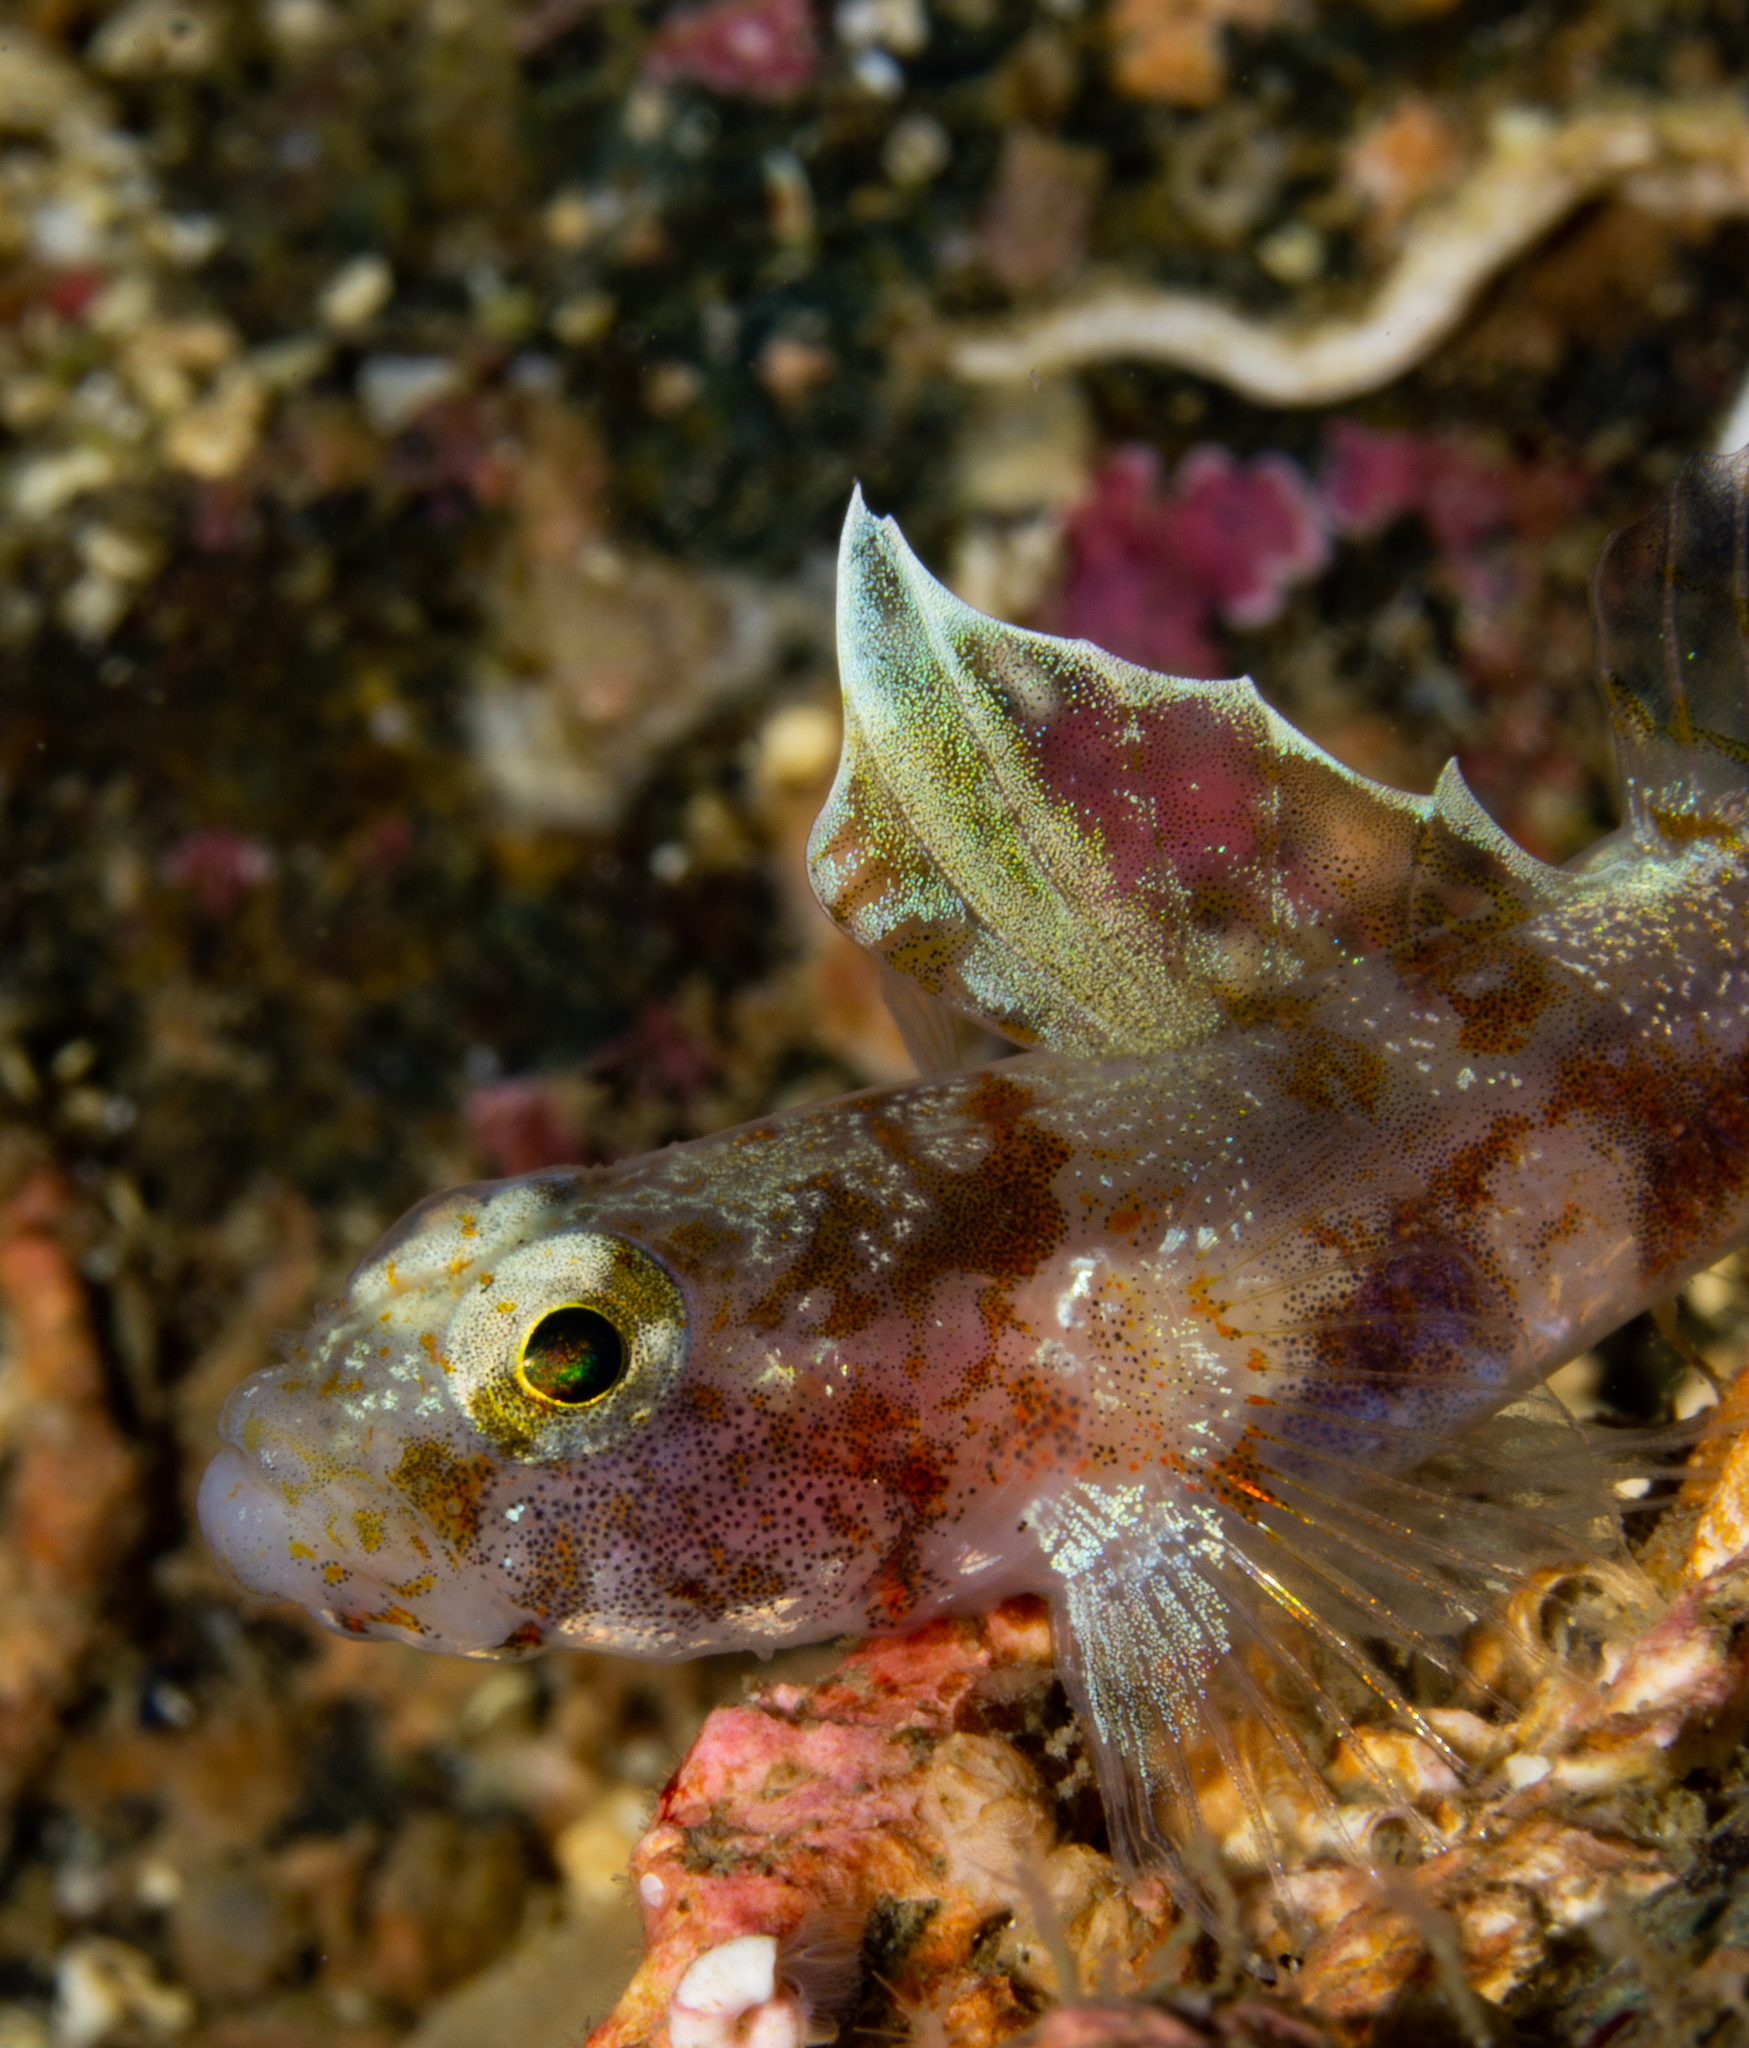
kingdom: Animalia
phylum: Chordata
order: Perciformes
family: Gobiidae
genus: Lebetus
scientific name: Lebetus scorpioides
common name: Diminutive goby
